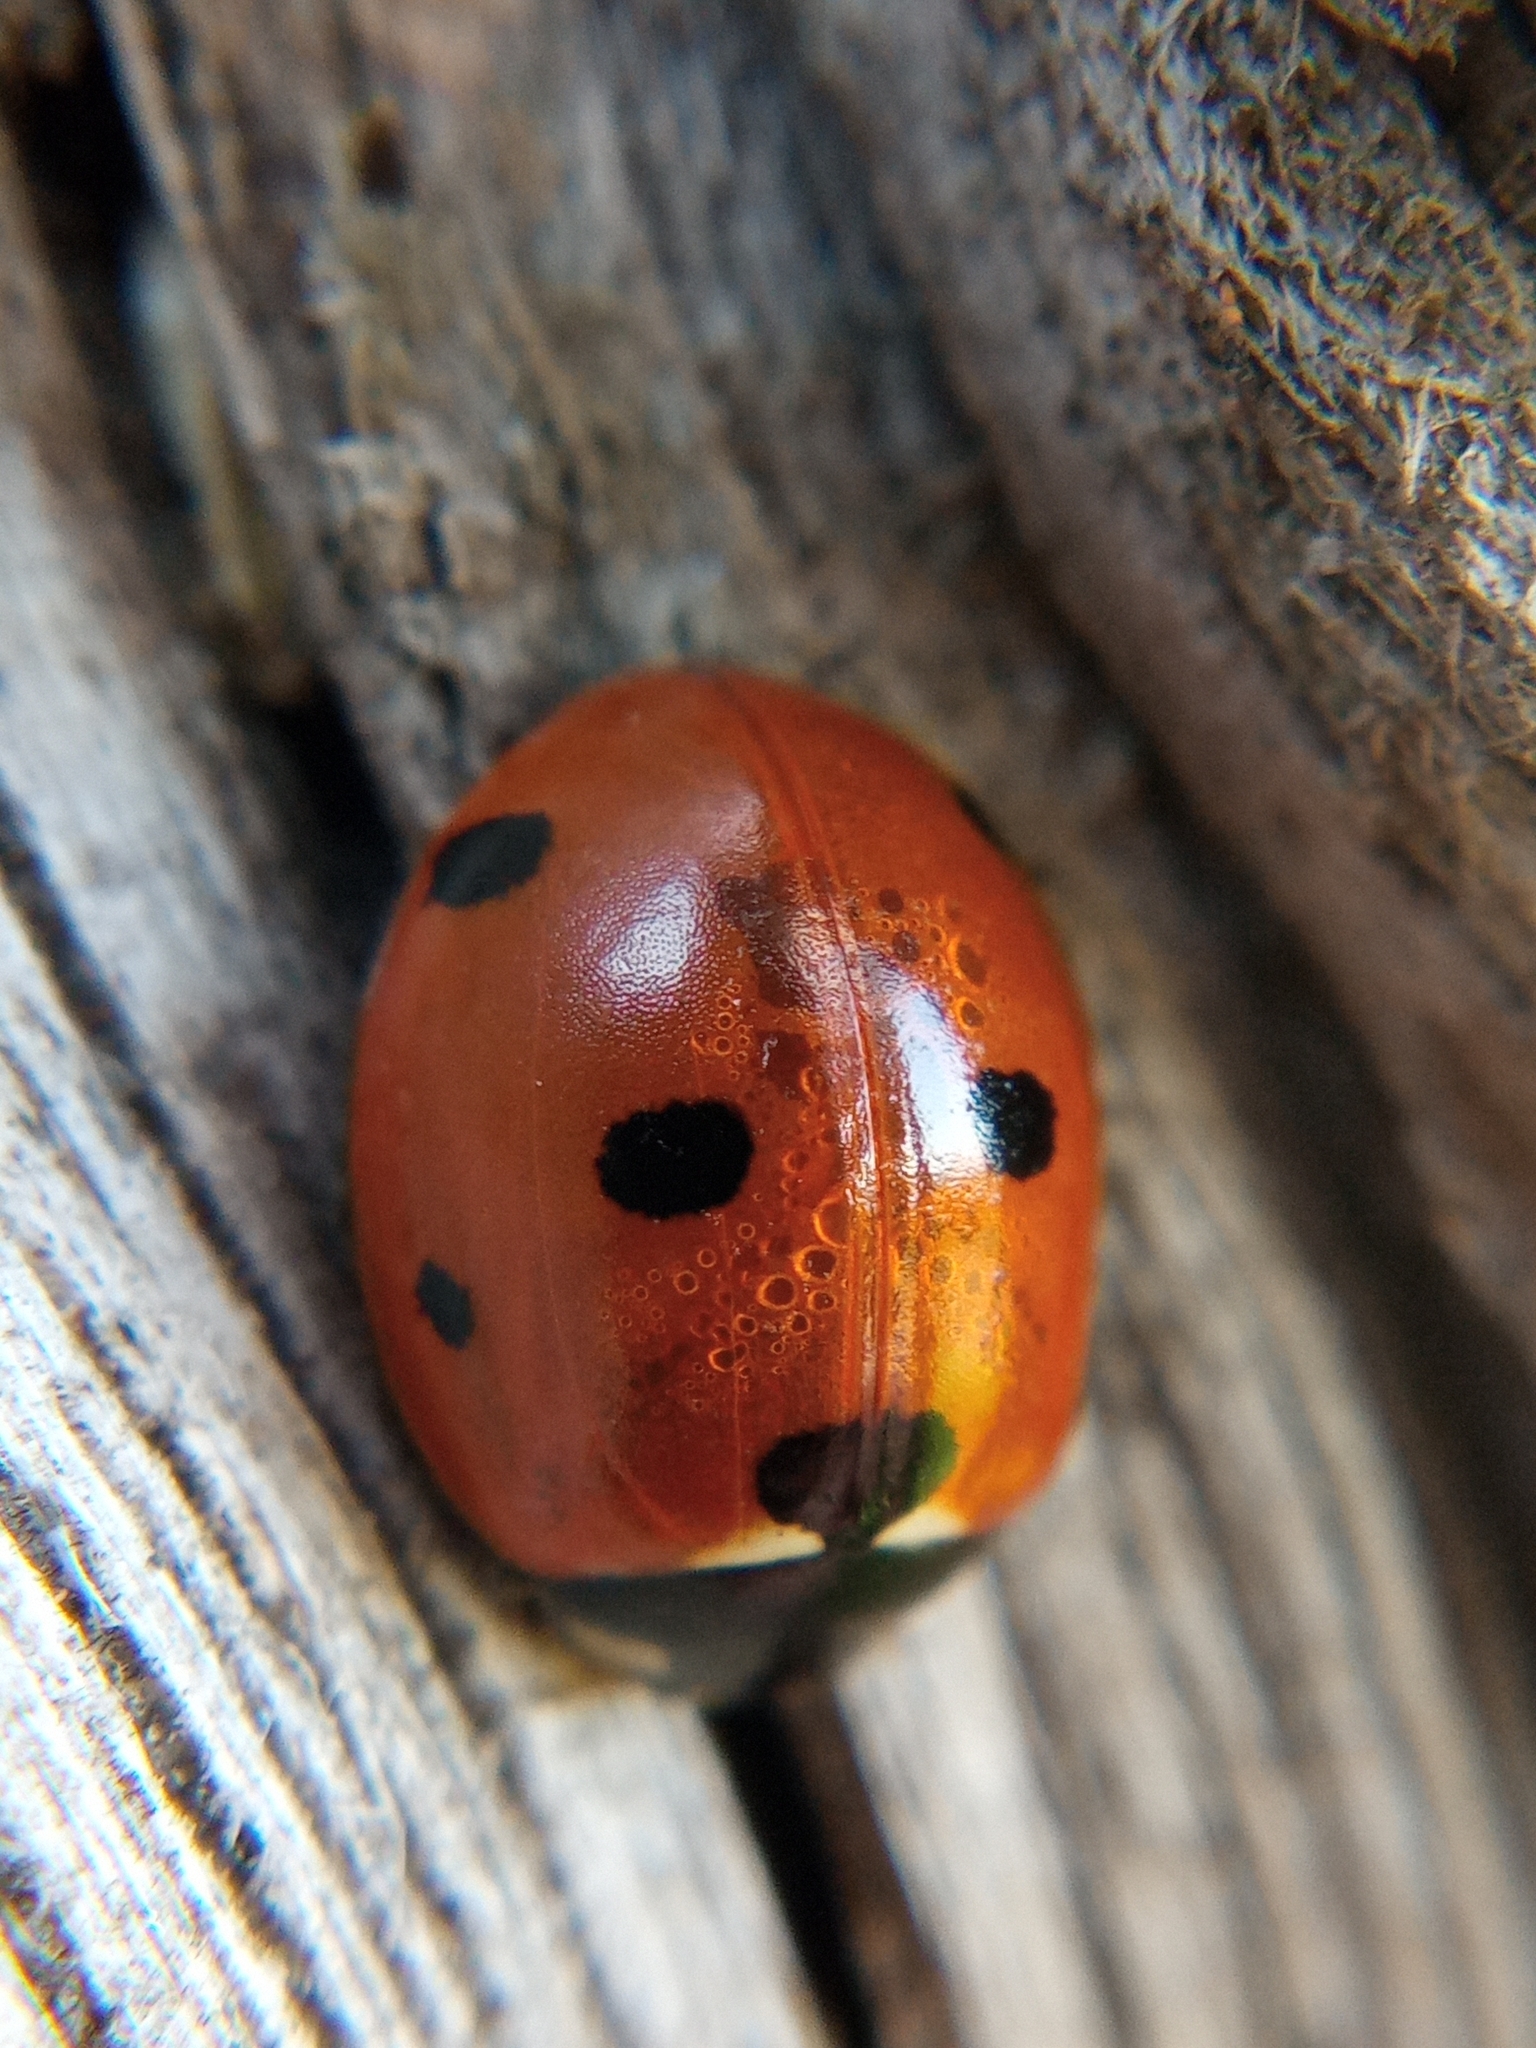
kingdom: Animalia
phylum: Arthropoda
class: Insecta
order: Coleoptera
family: Coccinellidae
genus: Coccinella
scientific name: Coccinella septempunctata
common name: Sevenspotted lady beetle
